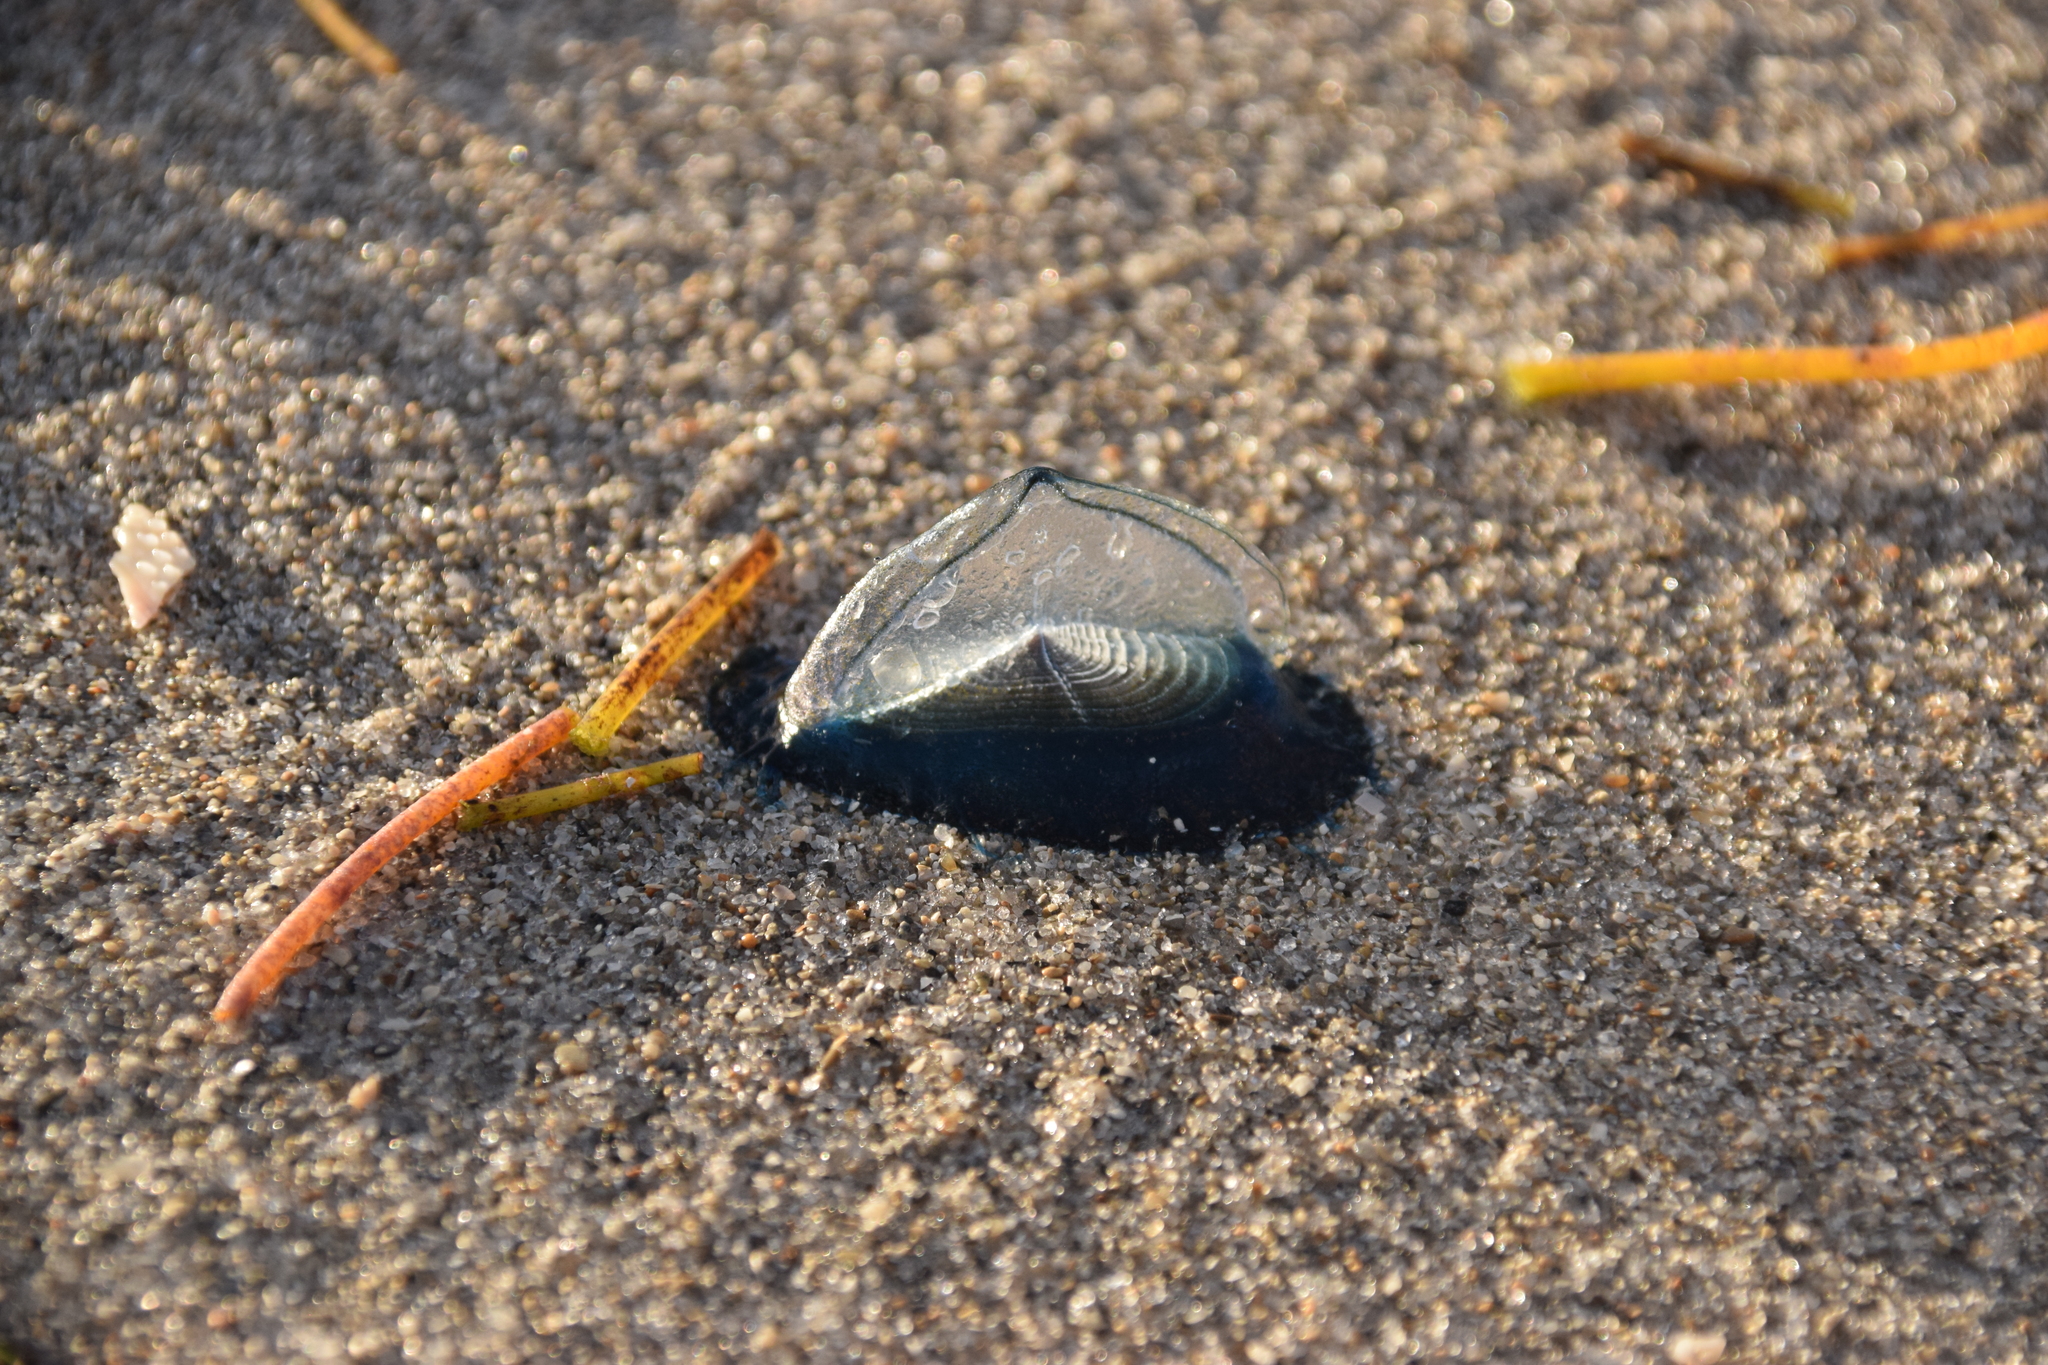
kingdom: Animalia
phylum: Cnidaria
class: Hydrozoa
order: Anthoathecata
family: Porpitidae
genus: Velella
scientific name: Velella velella
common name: By-the-wind-sailor
